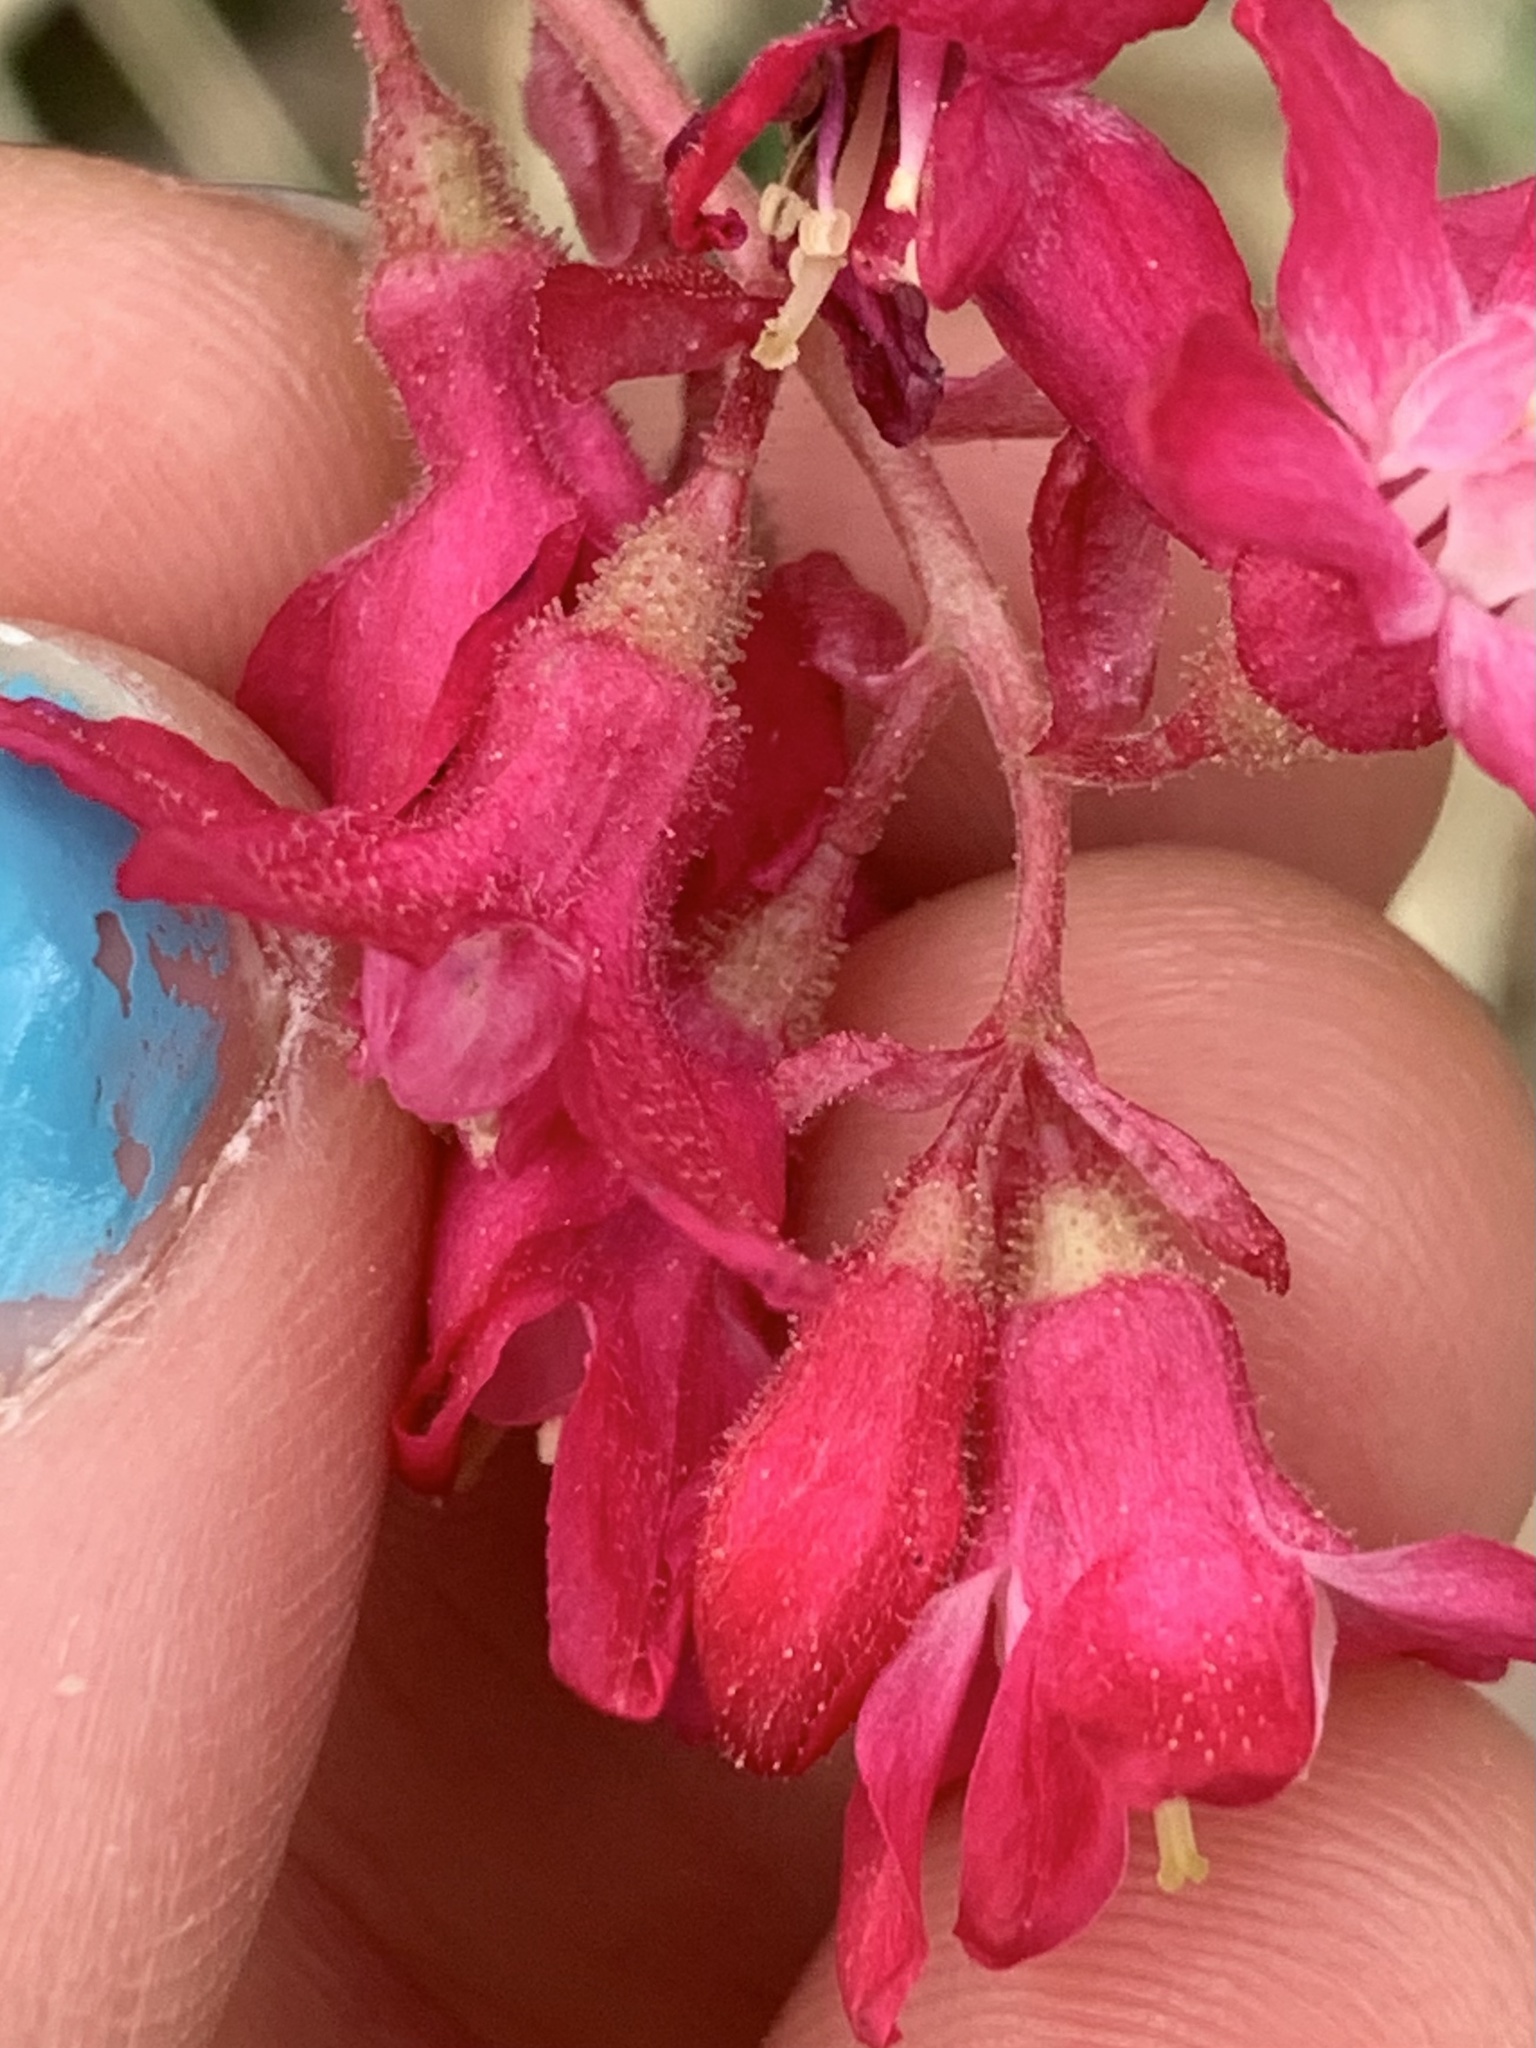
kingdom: Plantae
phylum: Tracheophyta
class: Magnoliopsida
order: Saxifragales
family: Grossulariaceae
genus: Ribes
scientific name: Ribes sanguineum
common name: Flowering currant
